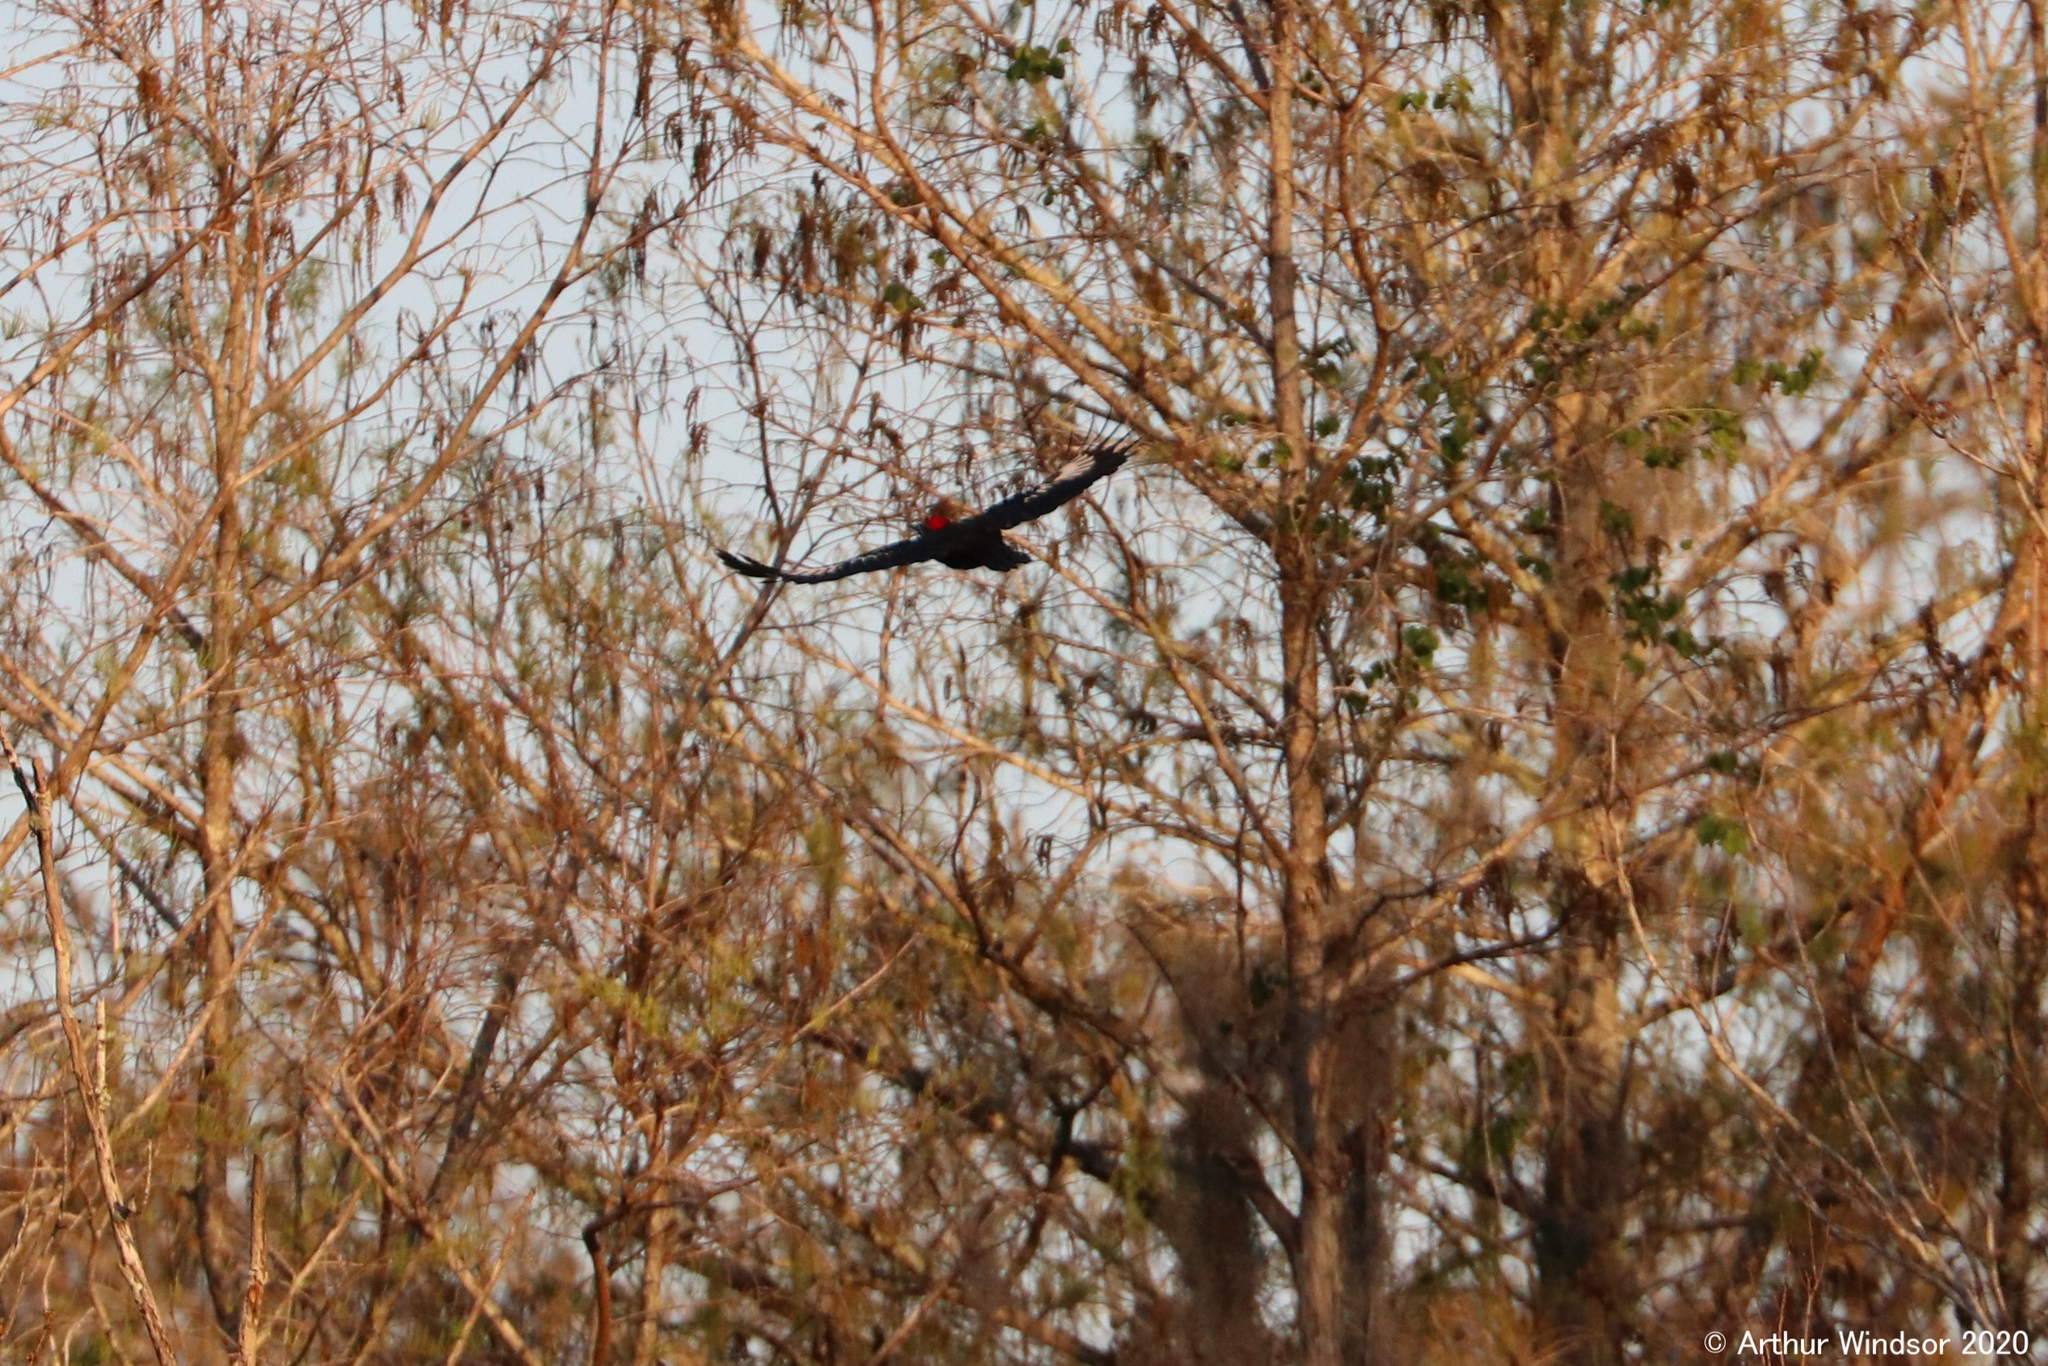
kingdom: Animalia
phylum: Chordata
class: Aves
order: Piciformes
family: Picidae
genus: Dryocopus
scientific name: Dryocopus pileatus
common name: Pileated woodpecker
